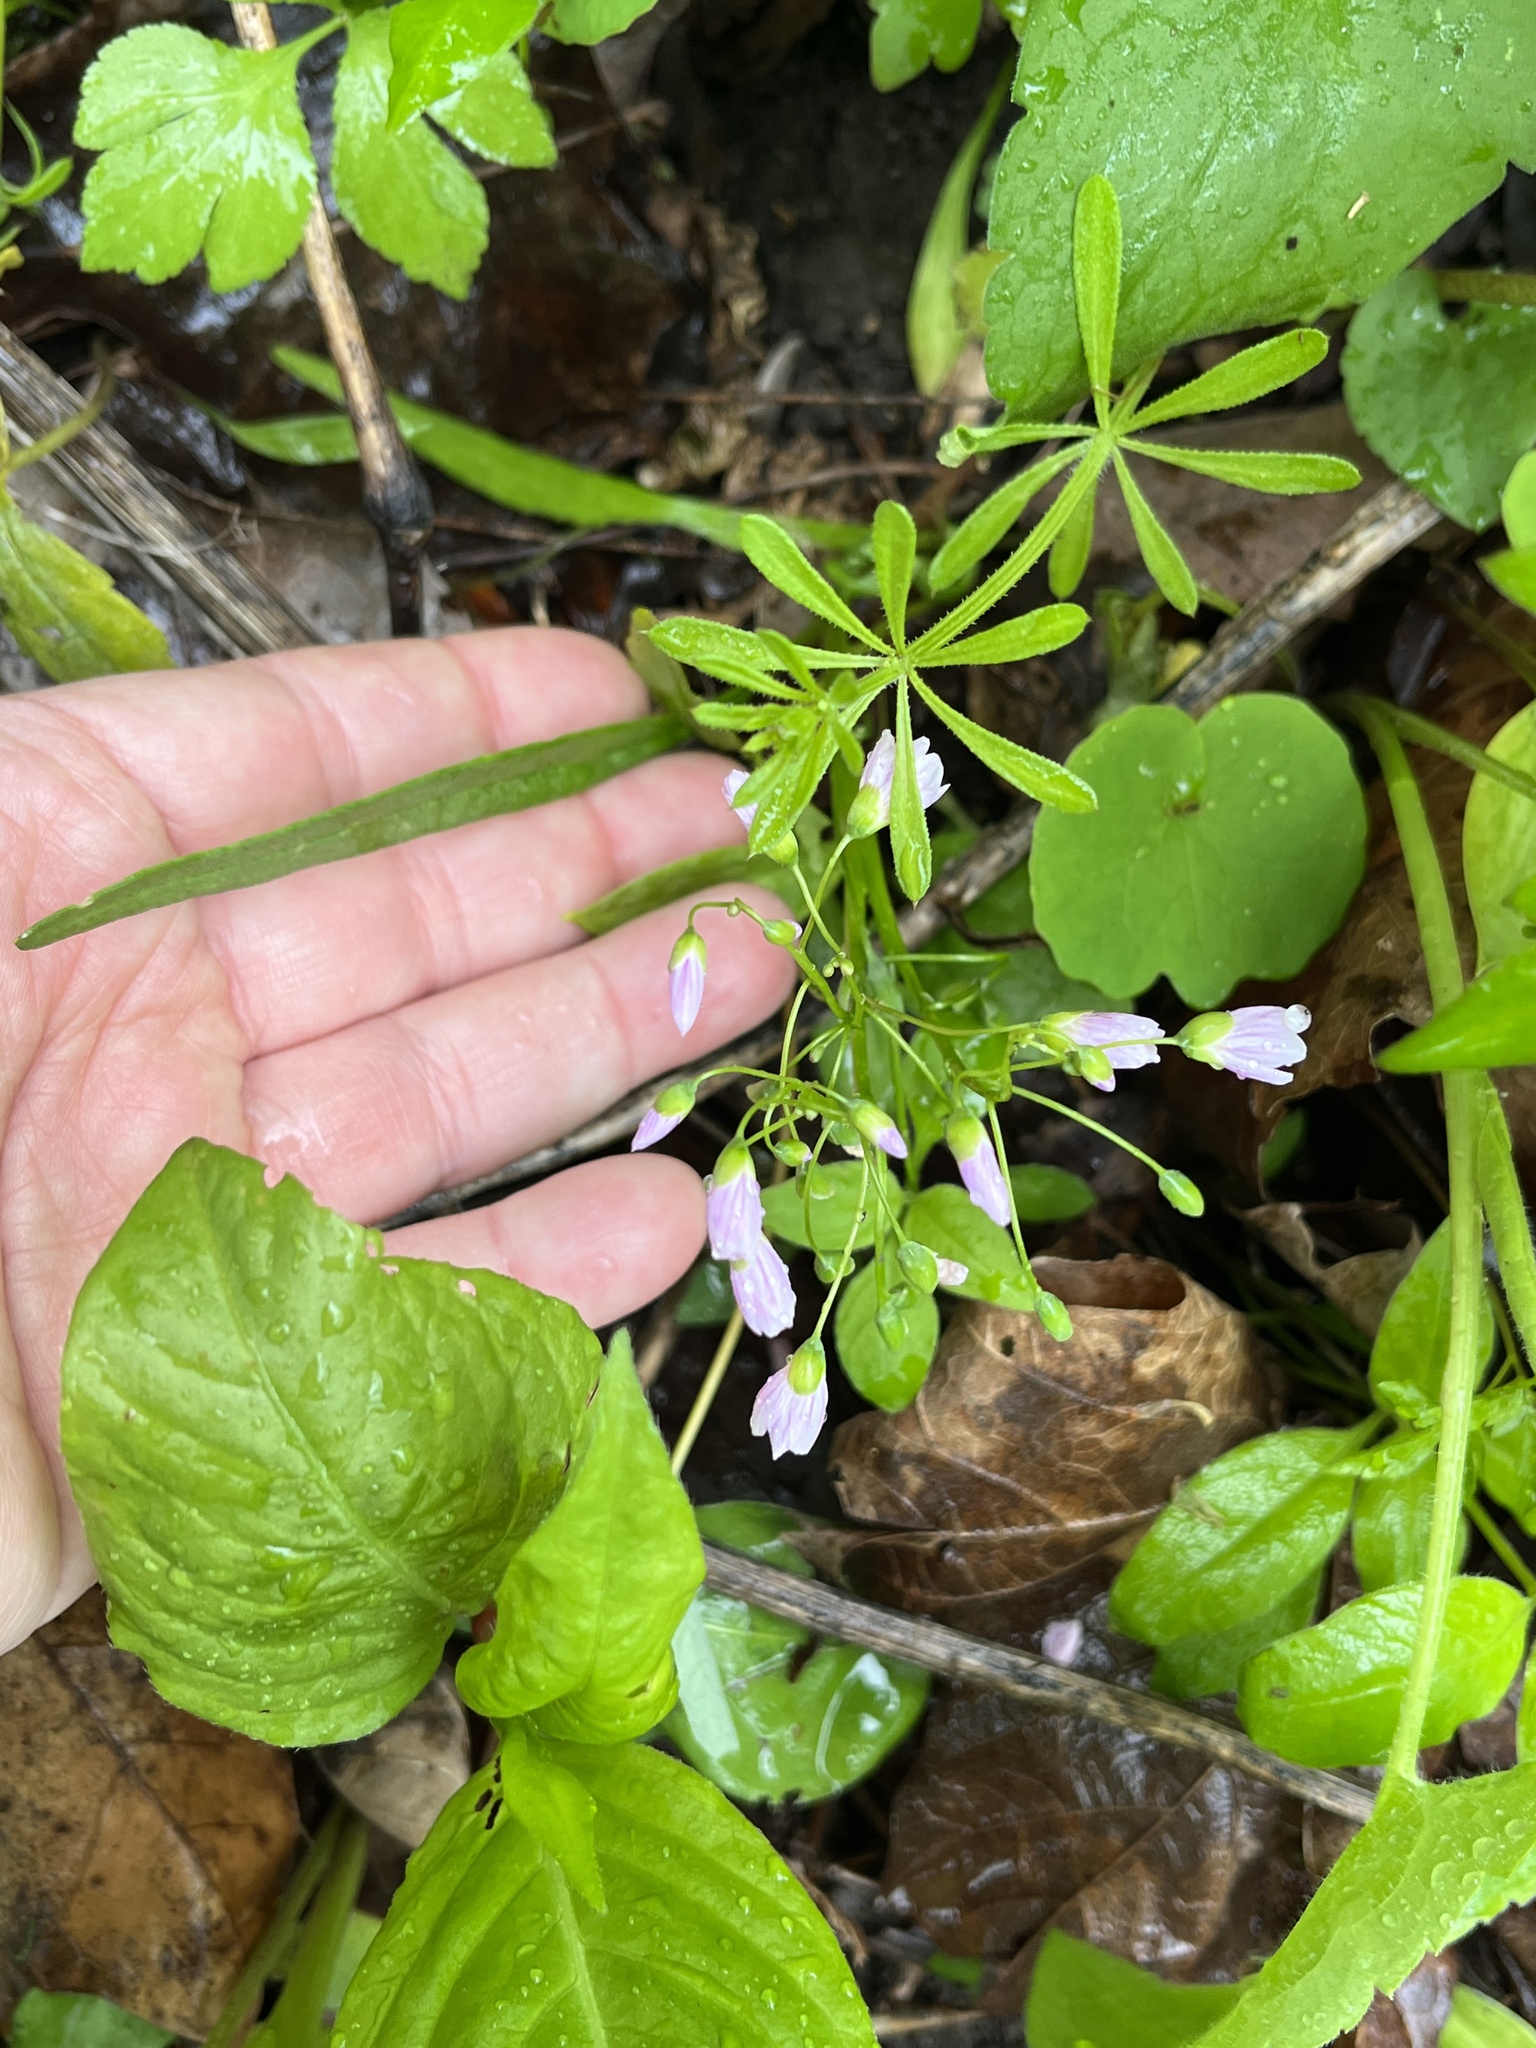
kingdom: Plantae
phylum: Tracheophyta
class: Magnoliopsida
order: Caryophyllales
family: Montiaceae
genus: Claytonia
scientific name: Claytonia virginica
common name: Virginia springbeauty
